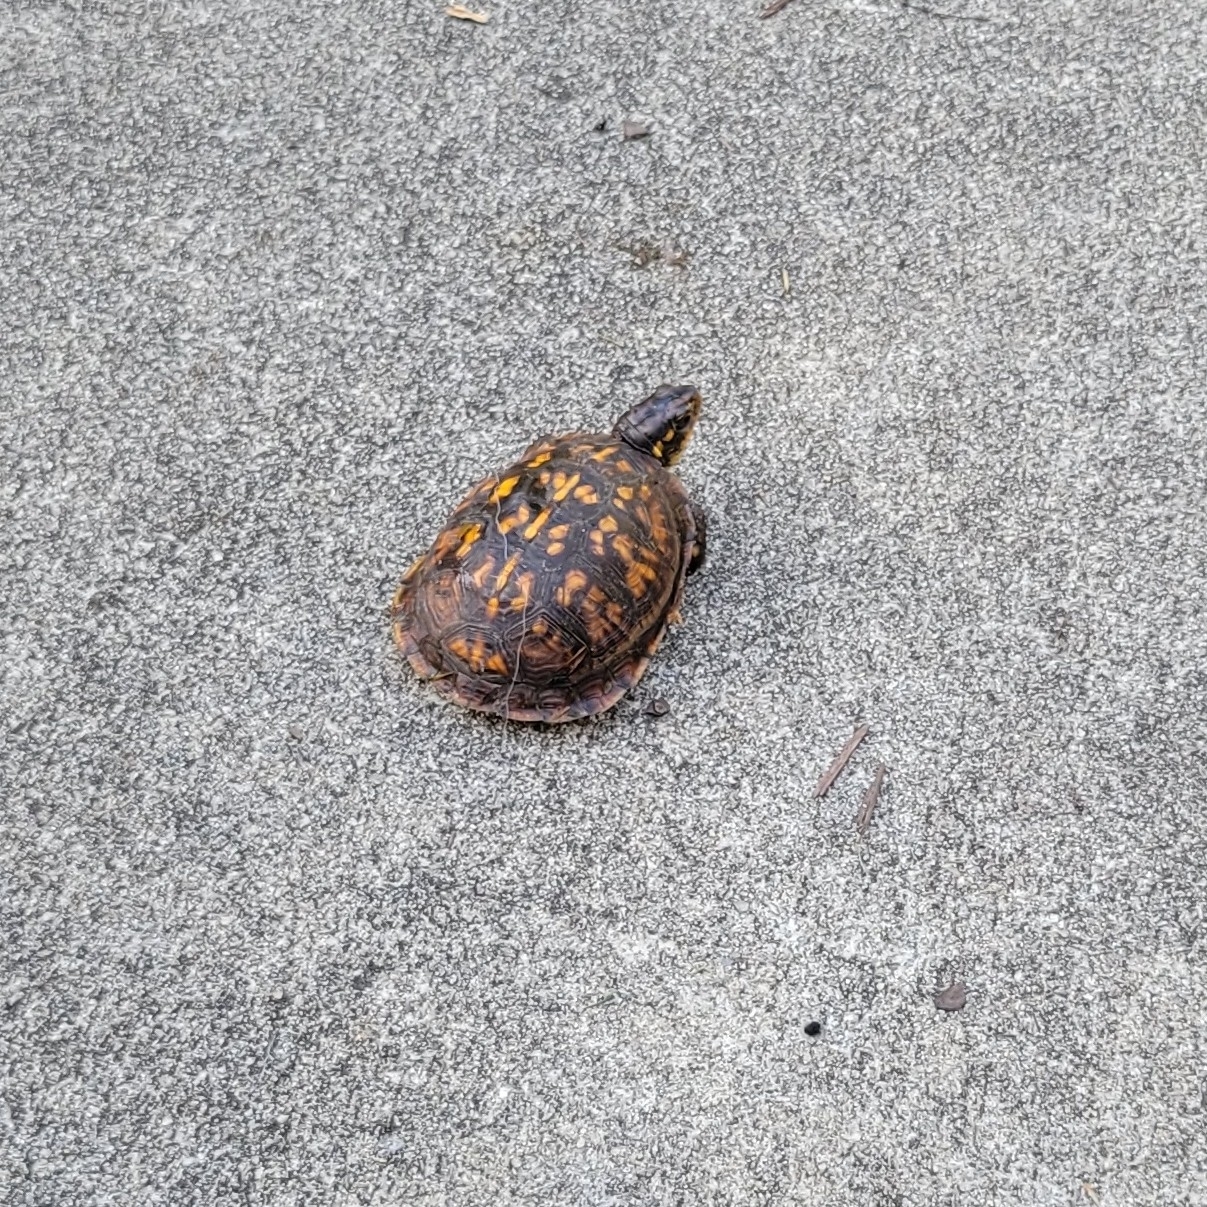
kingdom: Animalia
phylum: Chordata
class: Testudines
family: Emydidae
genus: Terrapene
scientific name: Terrapene carolina
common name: Common box turtle
